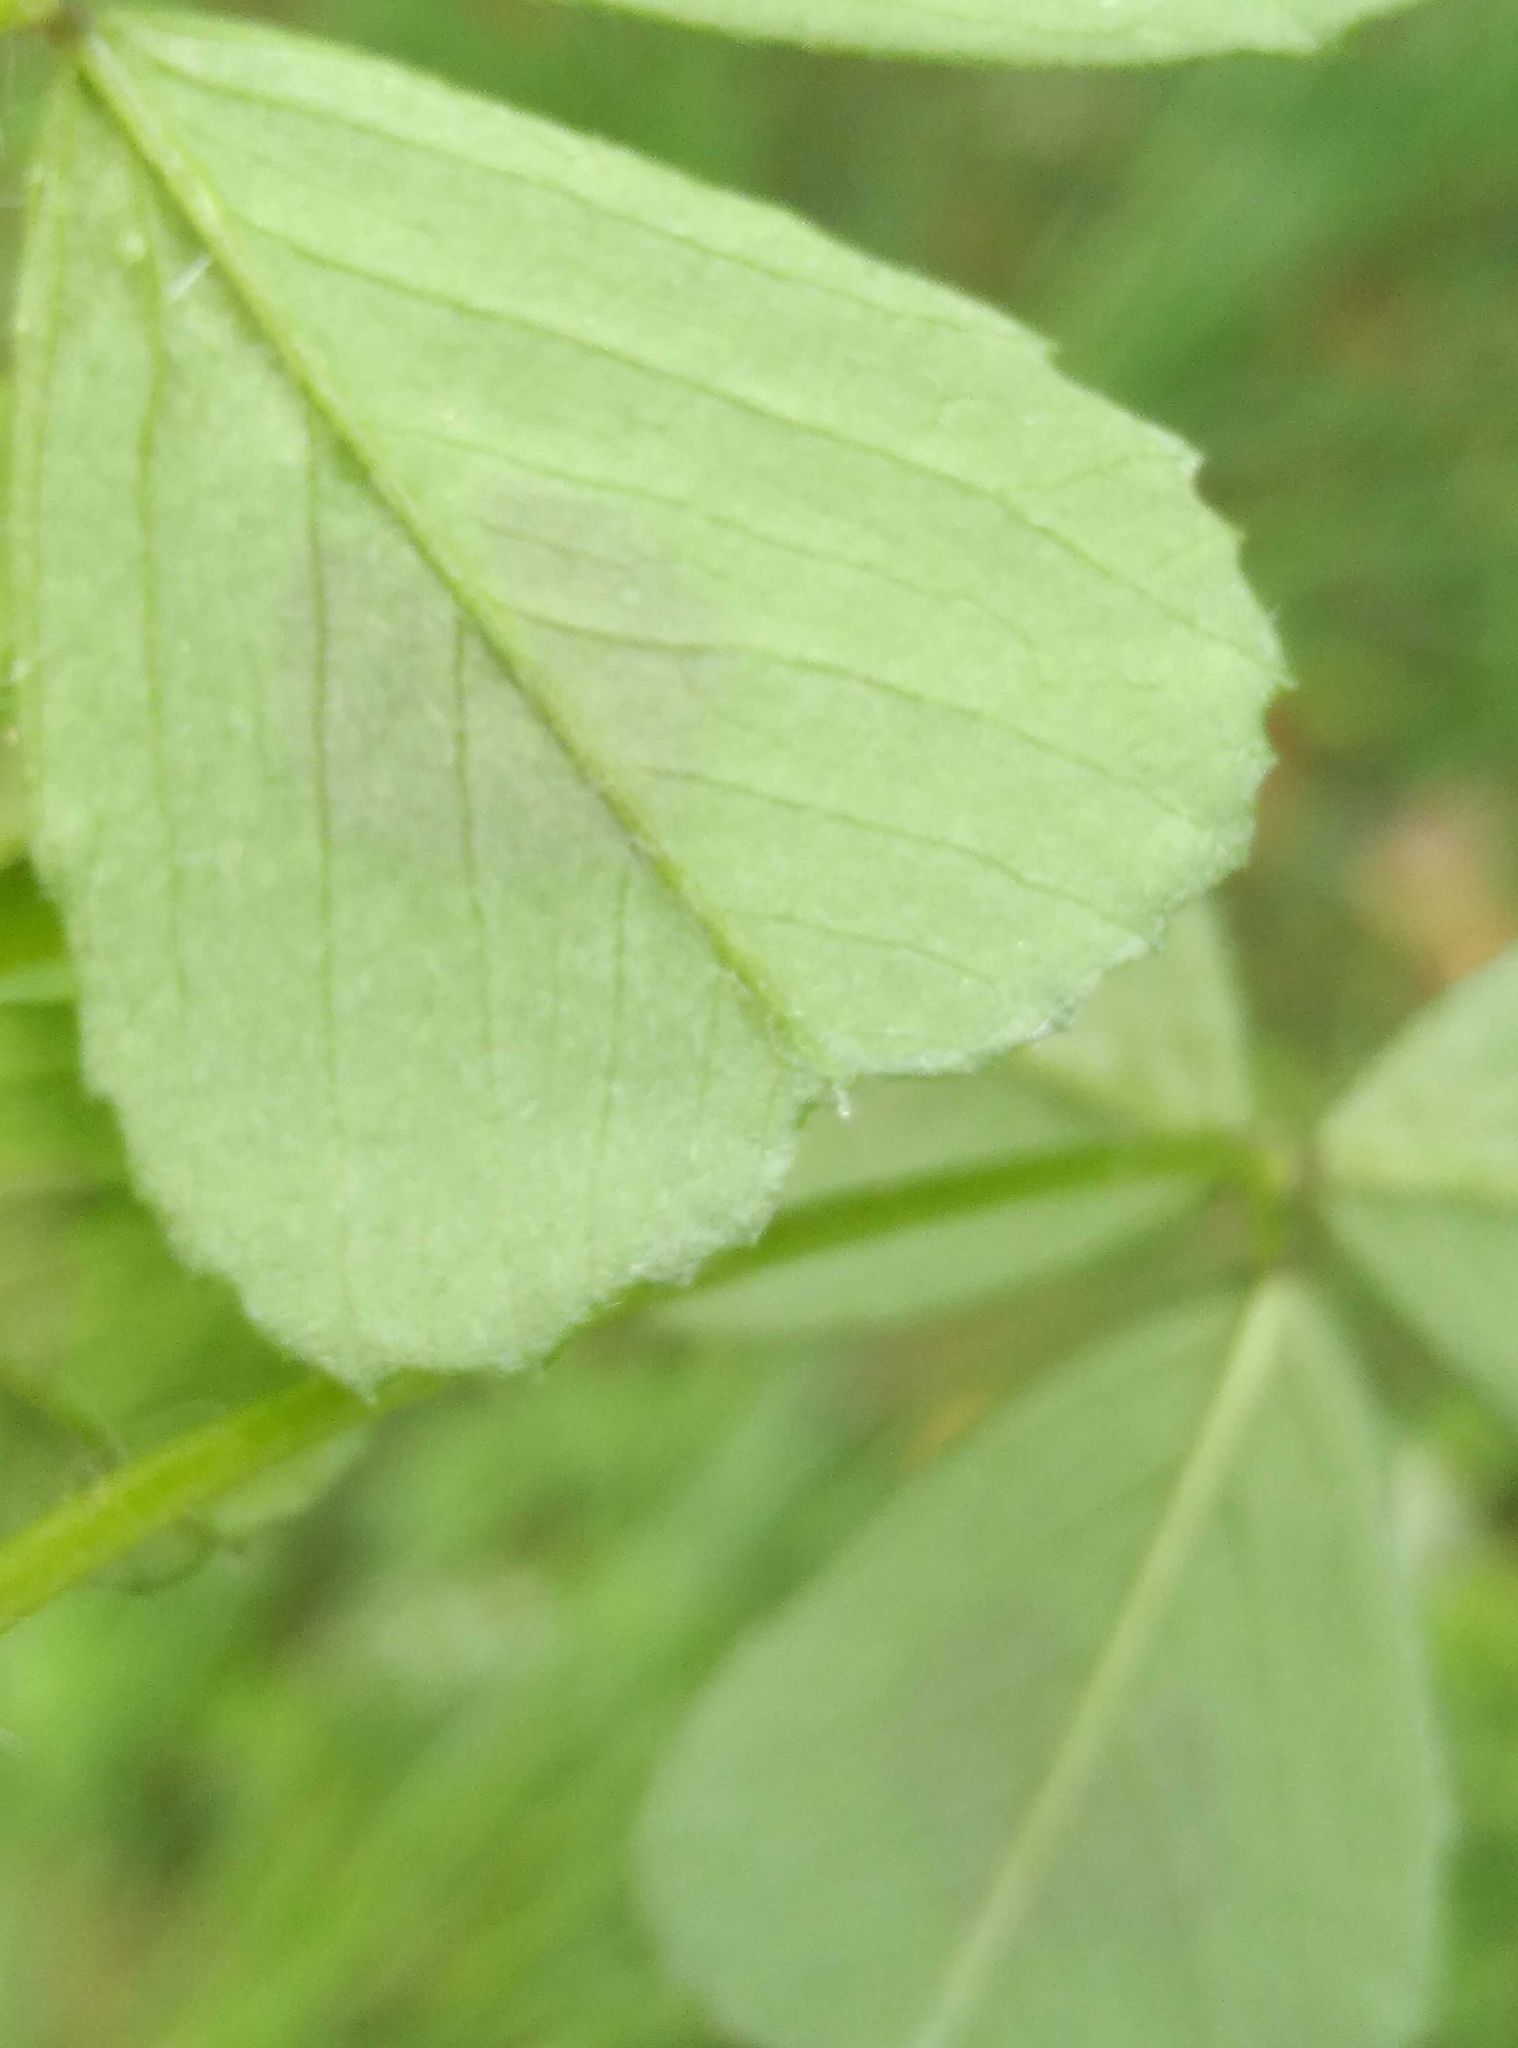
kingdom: Plantae
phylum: Tracheophyta
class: Magnoliopsida
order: Fabales
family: Fabaceae
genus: Medicago
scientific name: Medicago arabica
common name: Spotted medick
